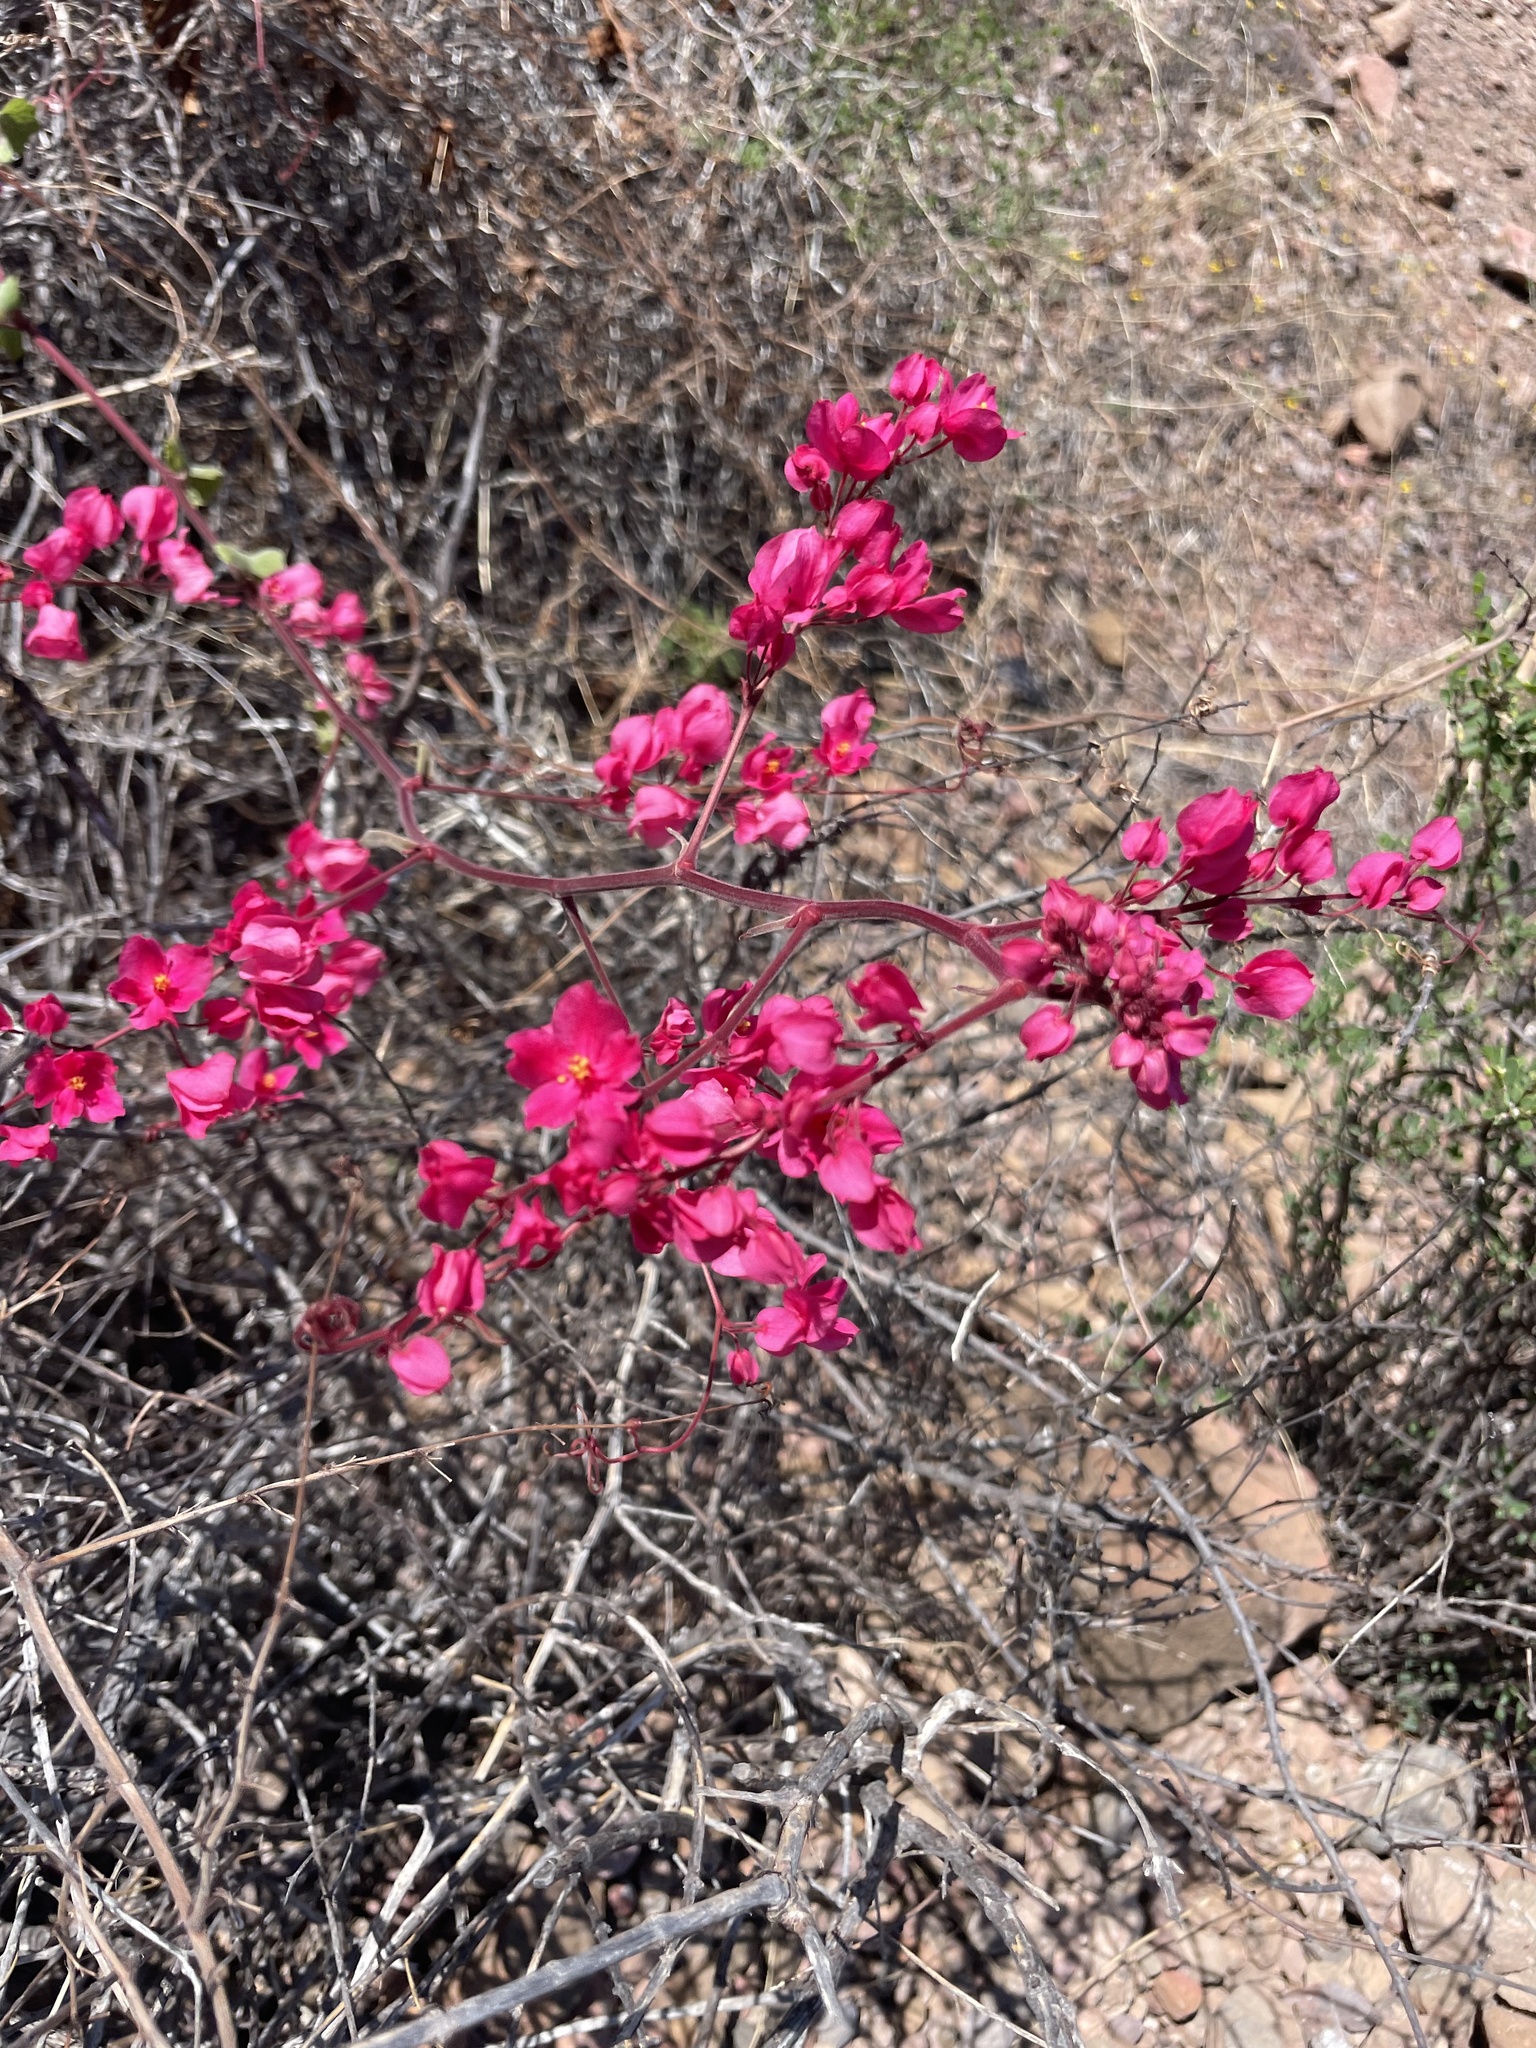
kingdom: Plantae
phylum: Tracheophyta
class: Magnoliopsida
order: Caryophyllales
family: Polygonaceae
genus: Antigonon
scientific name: Antigonon leptopus
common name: Coral vine
